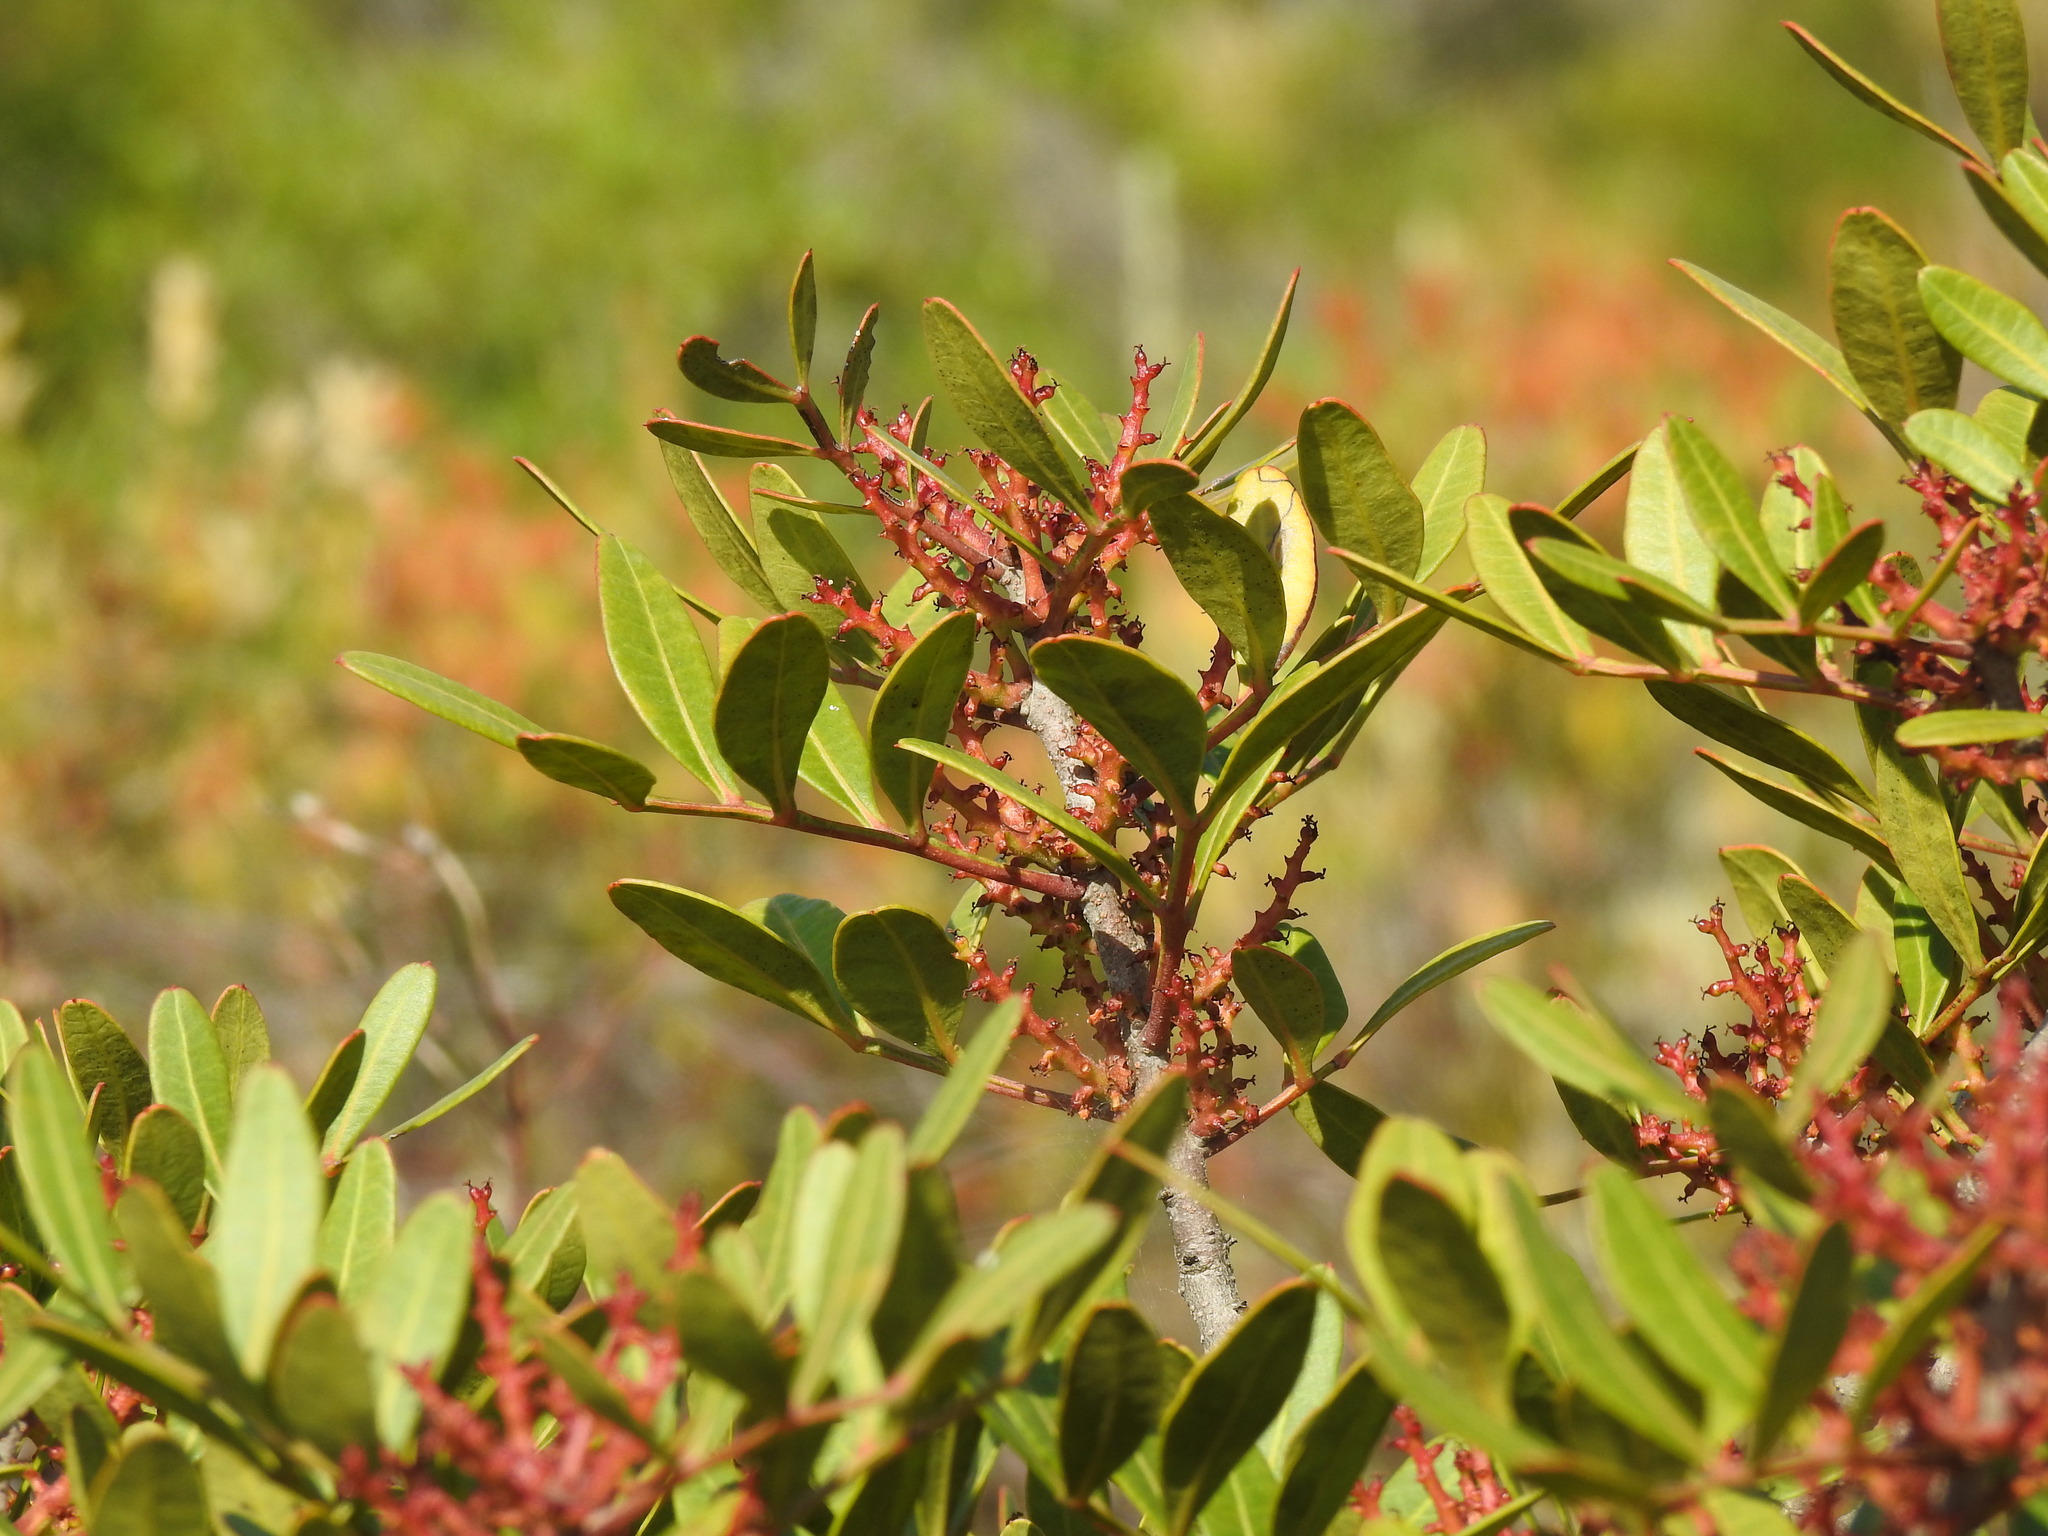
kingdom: Plantae
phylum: Tracheophyta
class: Magnoliopsida
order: Sapindales
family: Anacardiaceae
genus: Pistacia
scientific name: Pistacia lentiscus
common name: Lentisk
